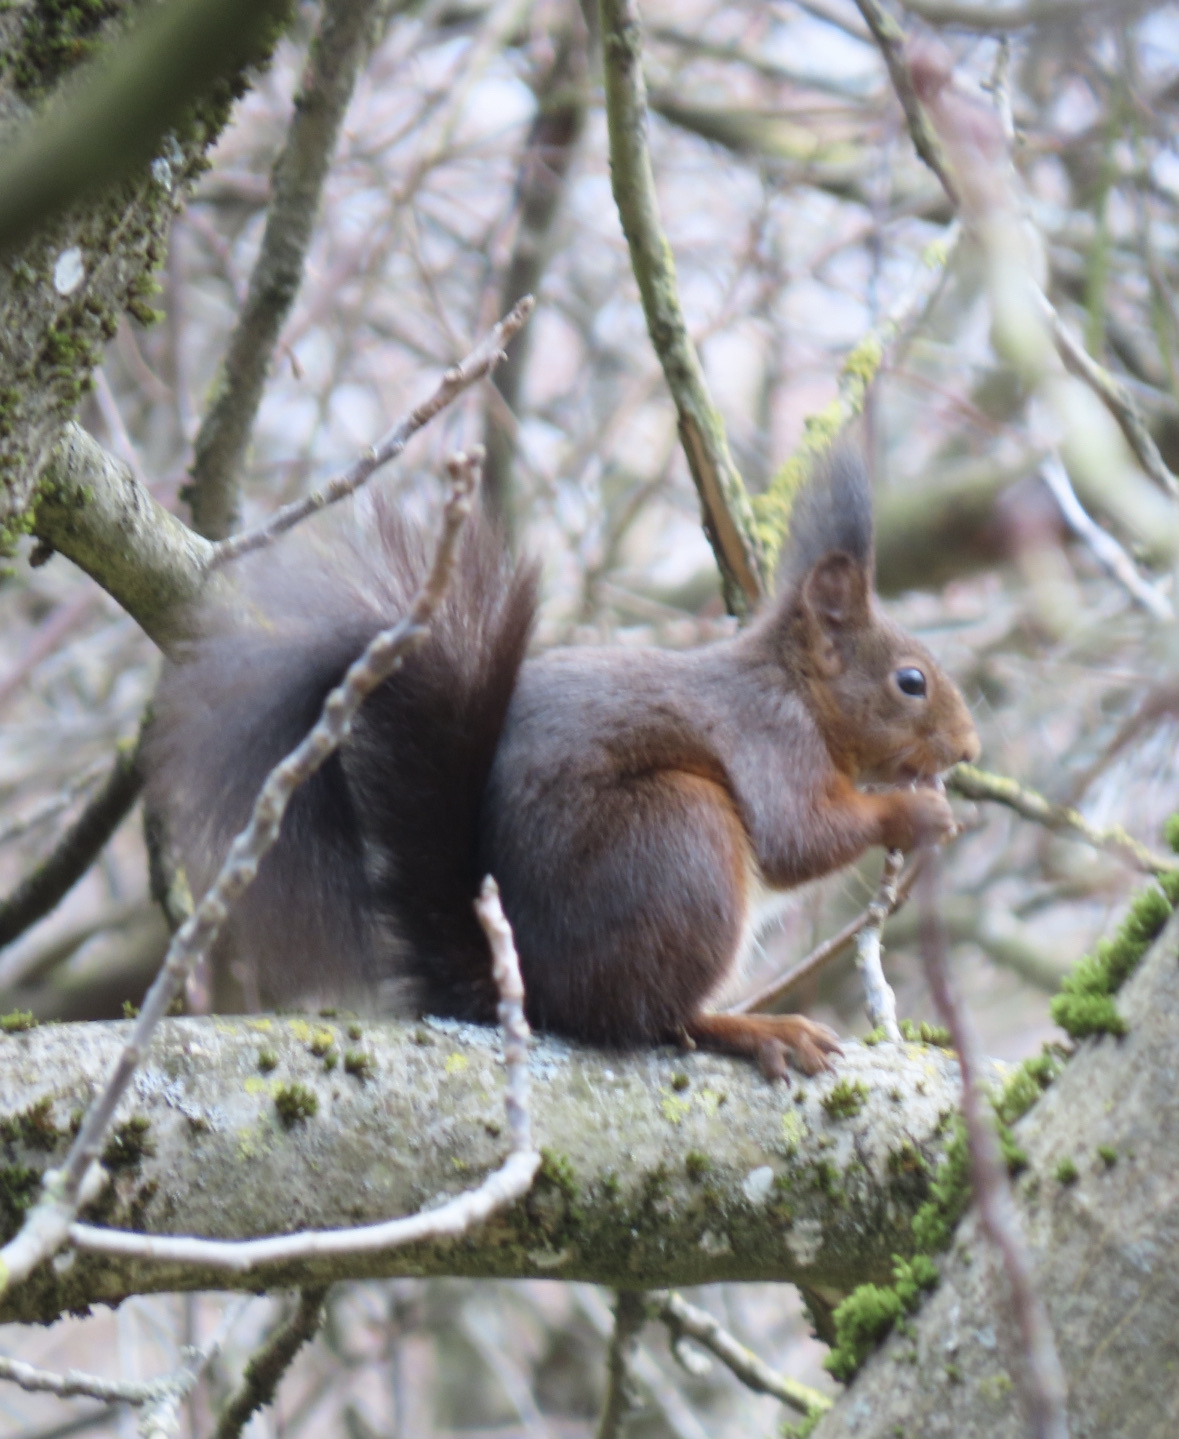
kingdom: Animalia
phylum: Chordata
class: Mammalia
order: Rodentia
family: Sciuridae
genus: Sciurus
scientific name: Sciurus vulgaris
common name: Eurasian red squirrel
